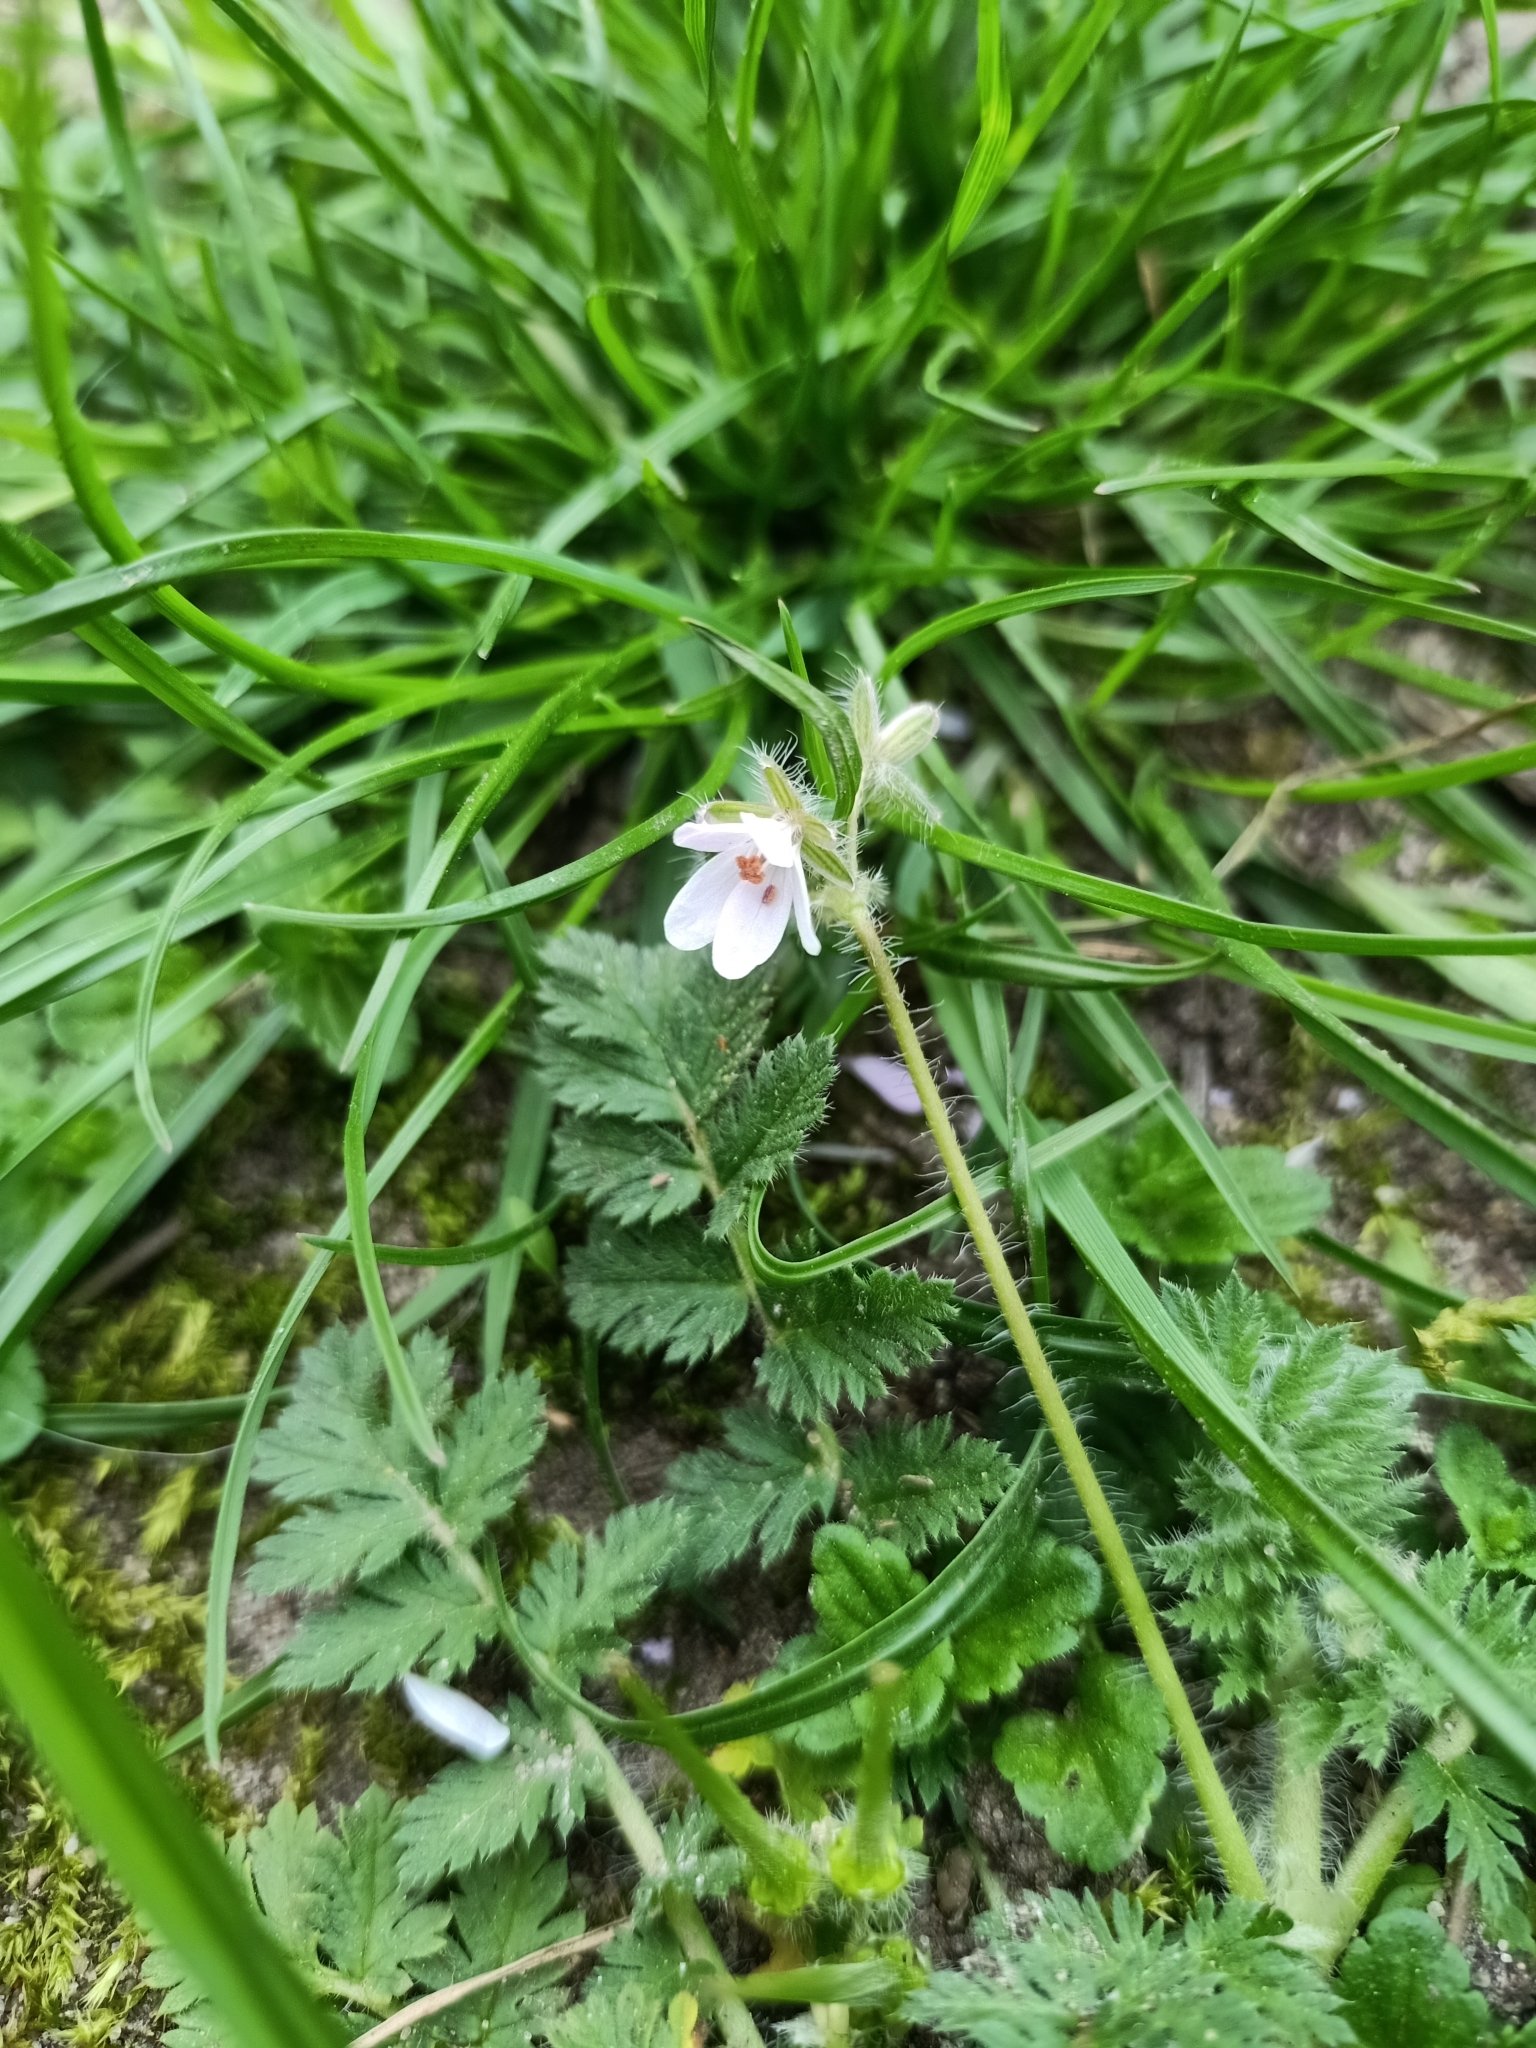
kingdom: Plantae
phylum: Tracheophyta
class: Magnoliopsida
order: Geraniales
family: Geraniaceae
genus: Erodium
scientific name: Erodium cicutarium
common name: Common stork's-bill
